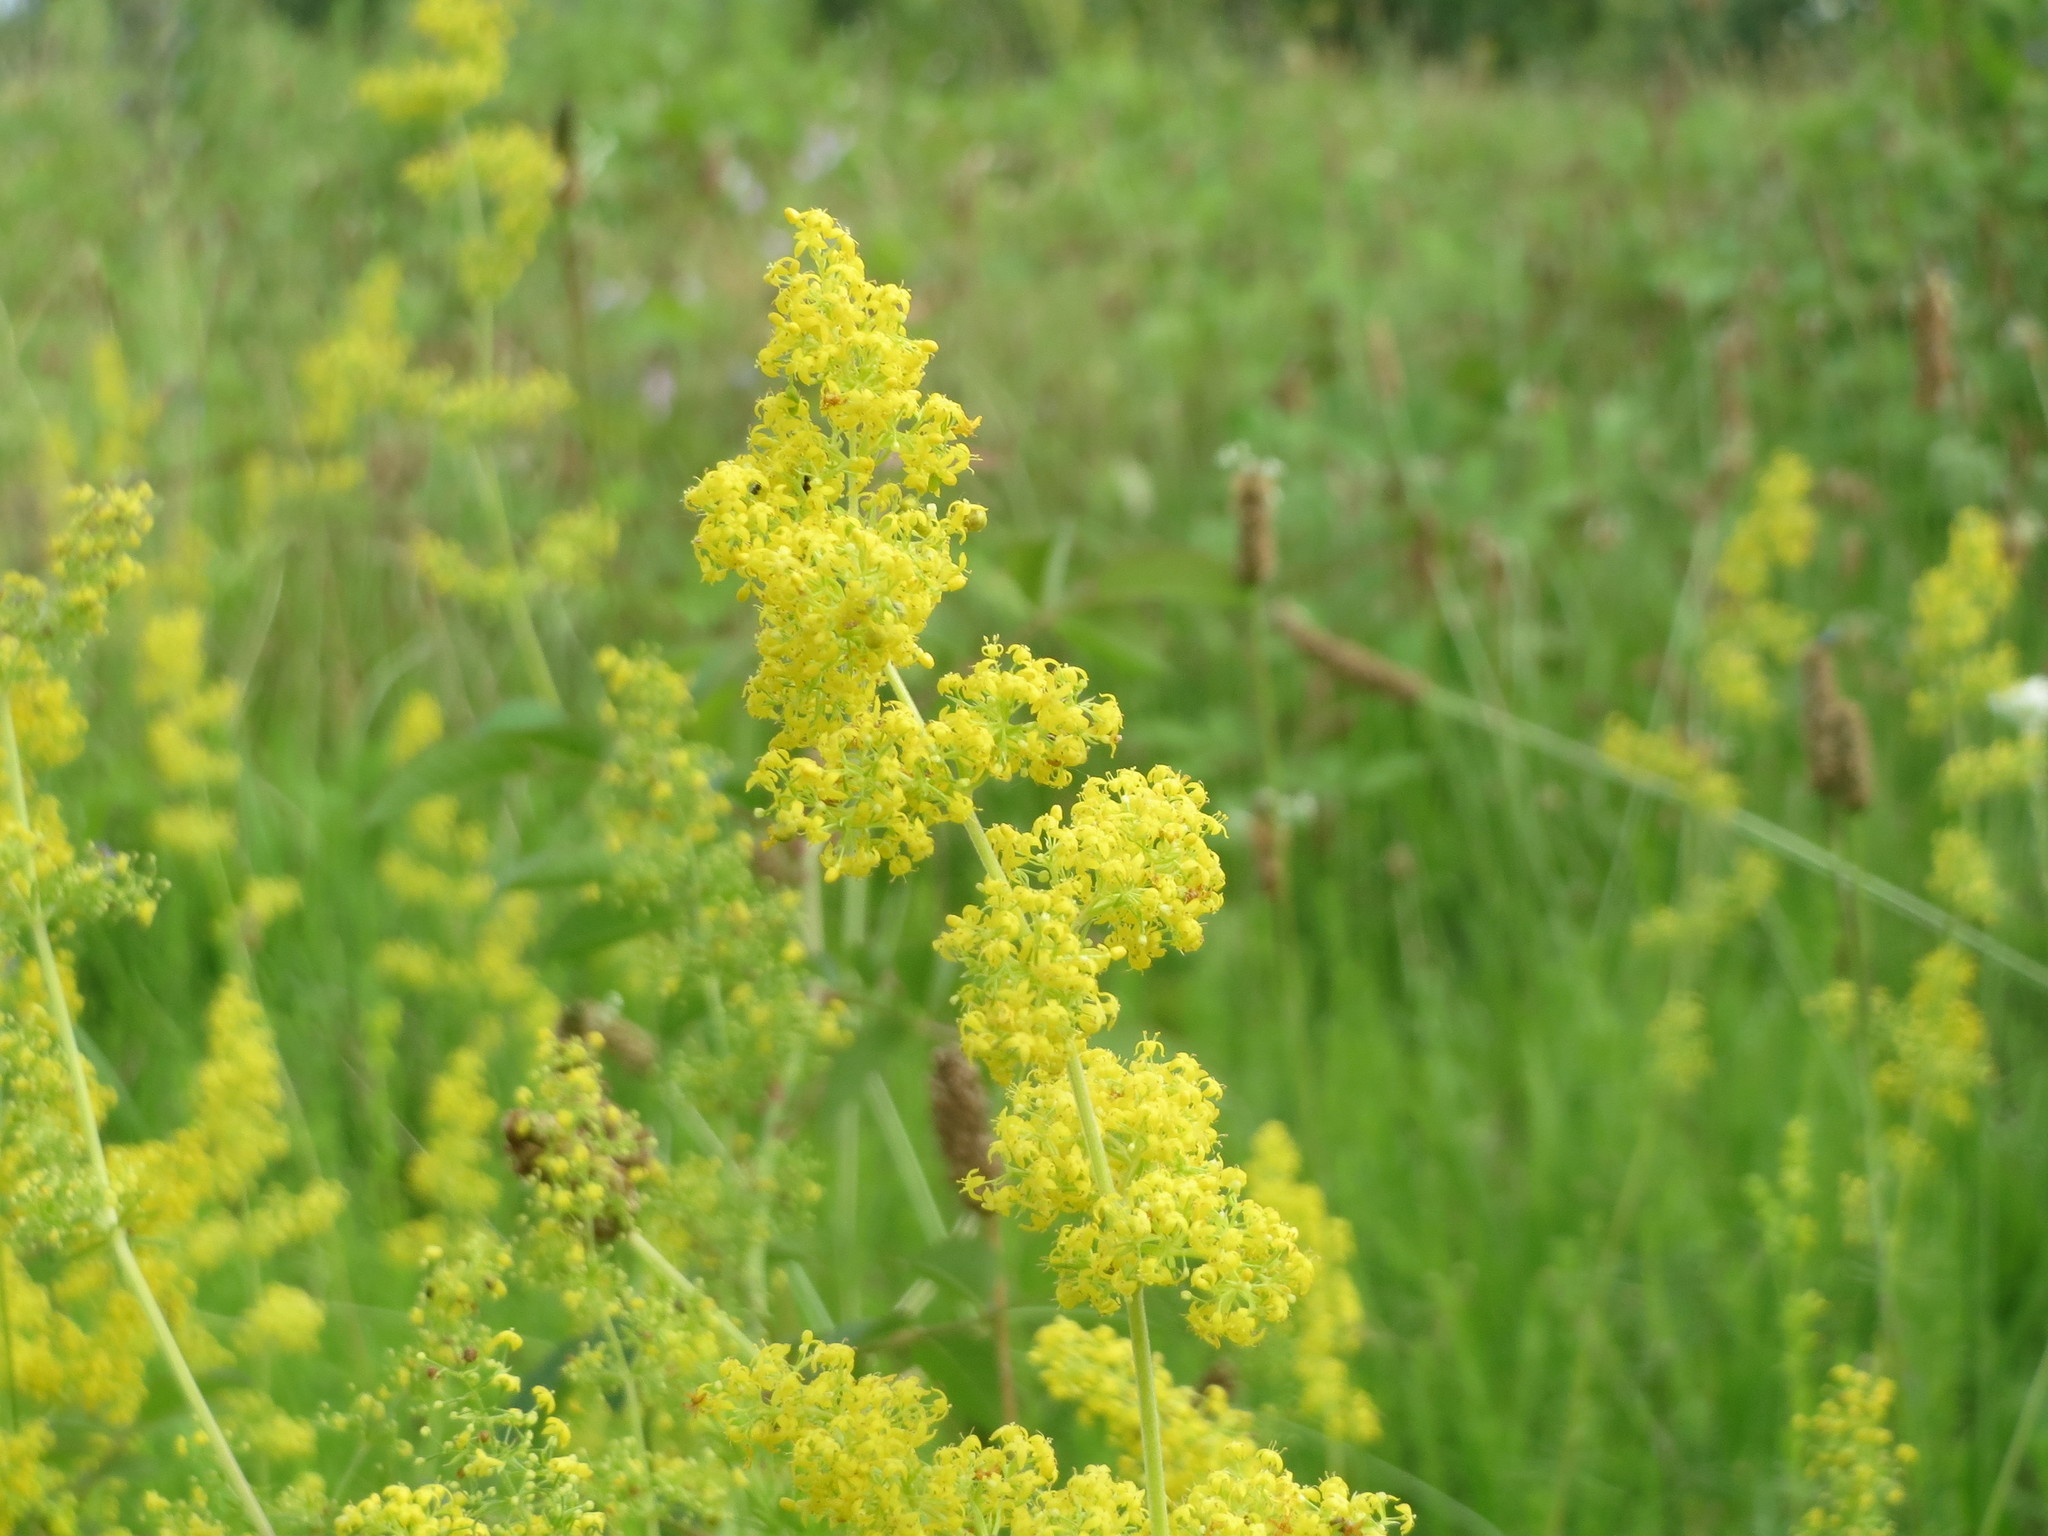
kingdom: Plantae
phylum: Tracheophyta
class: Magnoliopsida
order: Gentianales
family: Rubiaceae
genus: Galium
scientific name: Galium verum
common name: Lady's bedstraw
